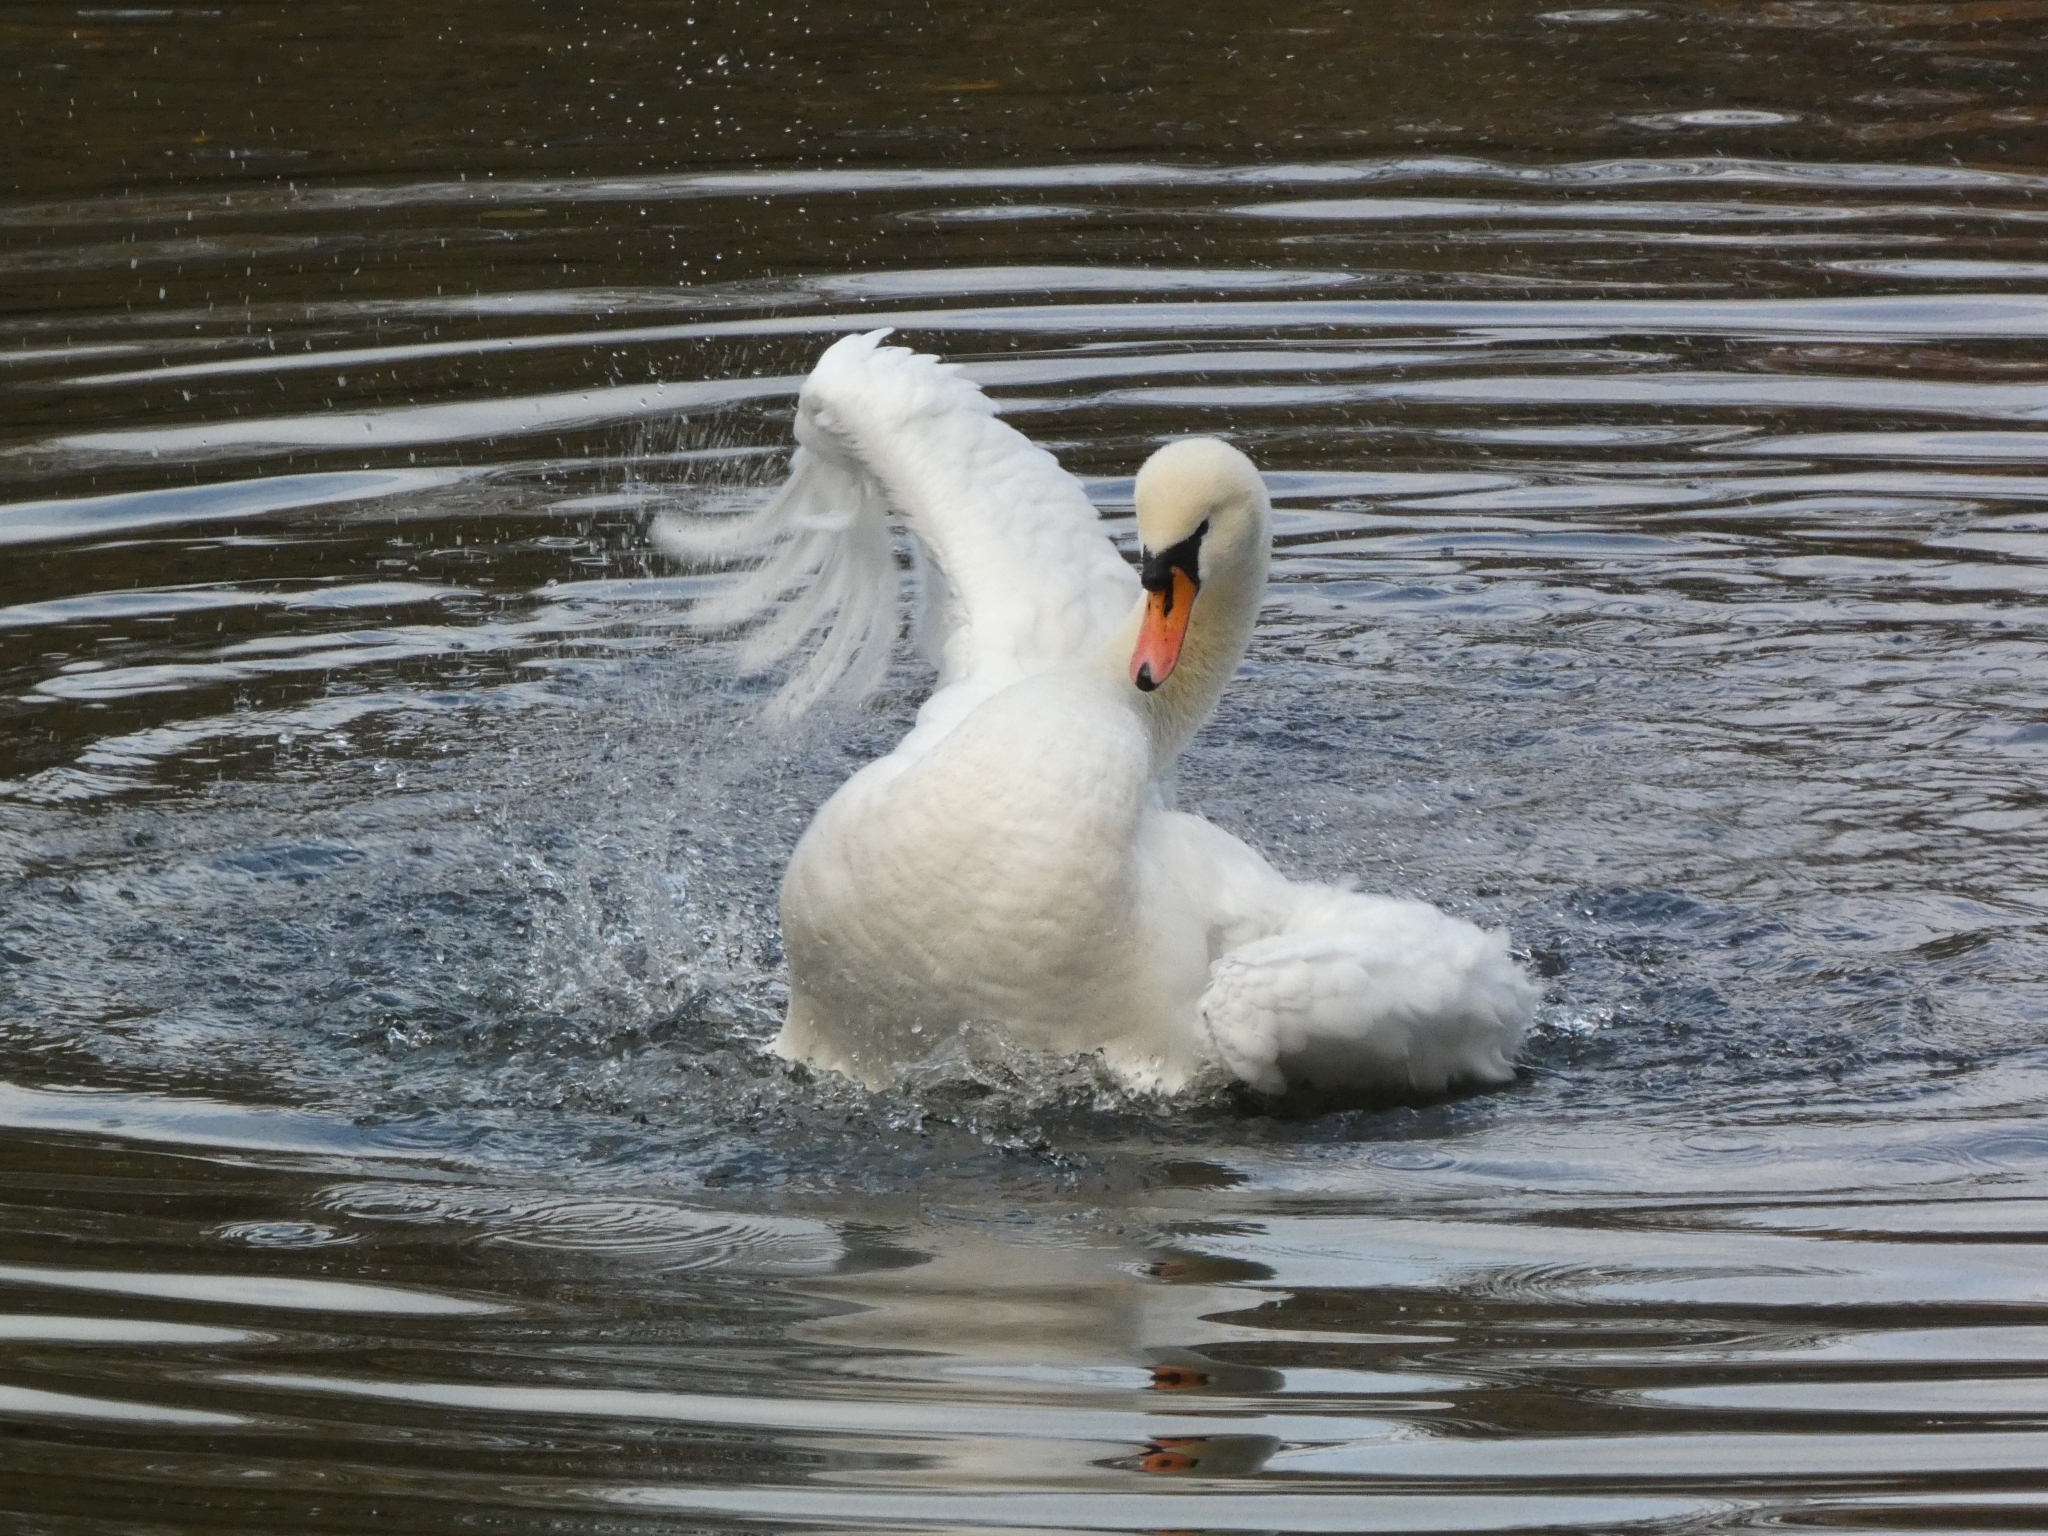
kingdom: Animalia
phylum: Chordata
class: Aves
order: Anseriformes
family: Anatidae
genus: Cygnus
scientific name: Cygnus olor
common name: Mute swan
